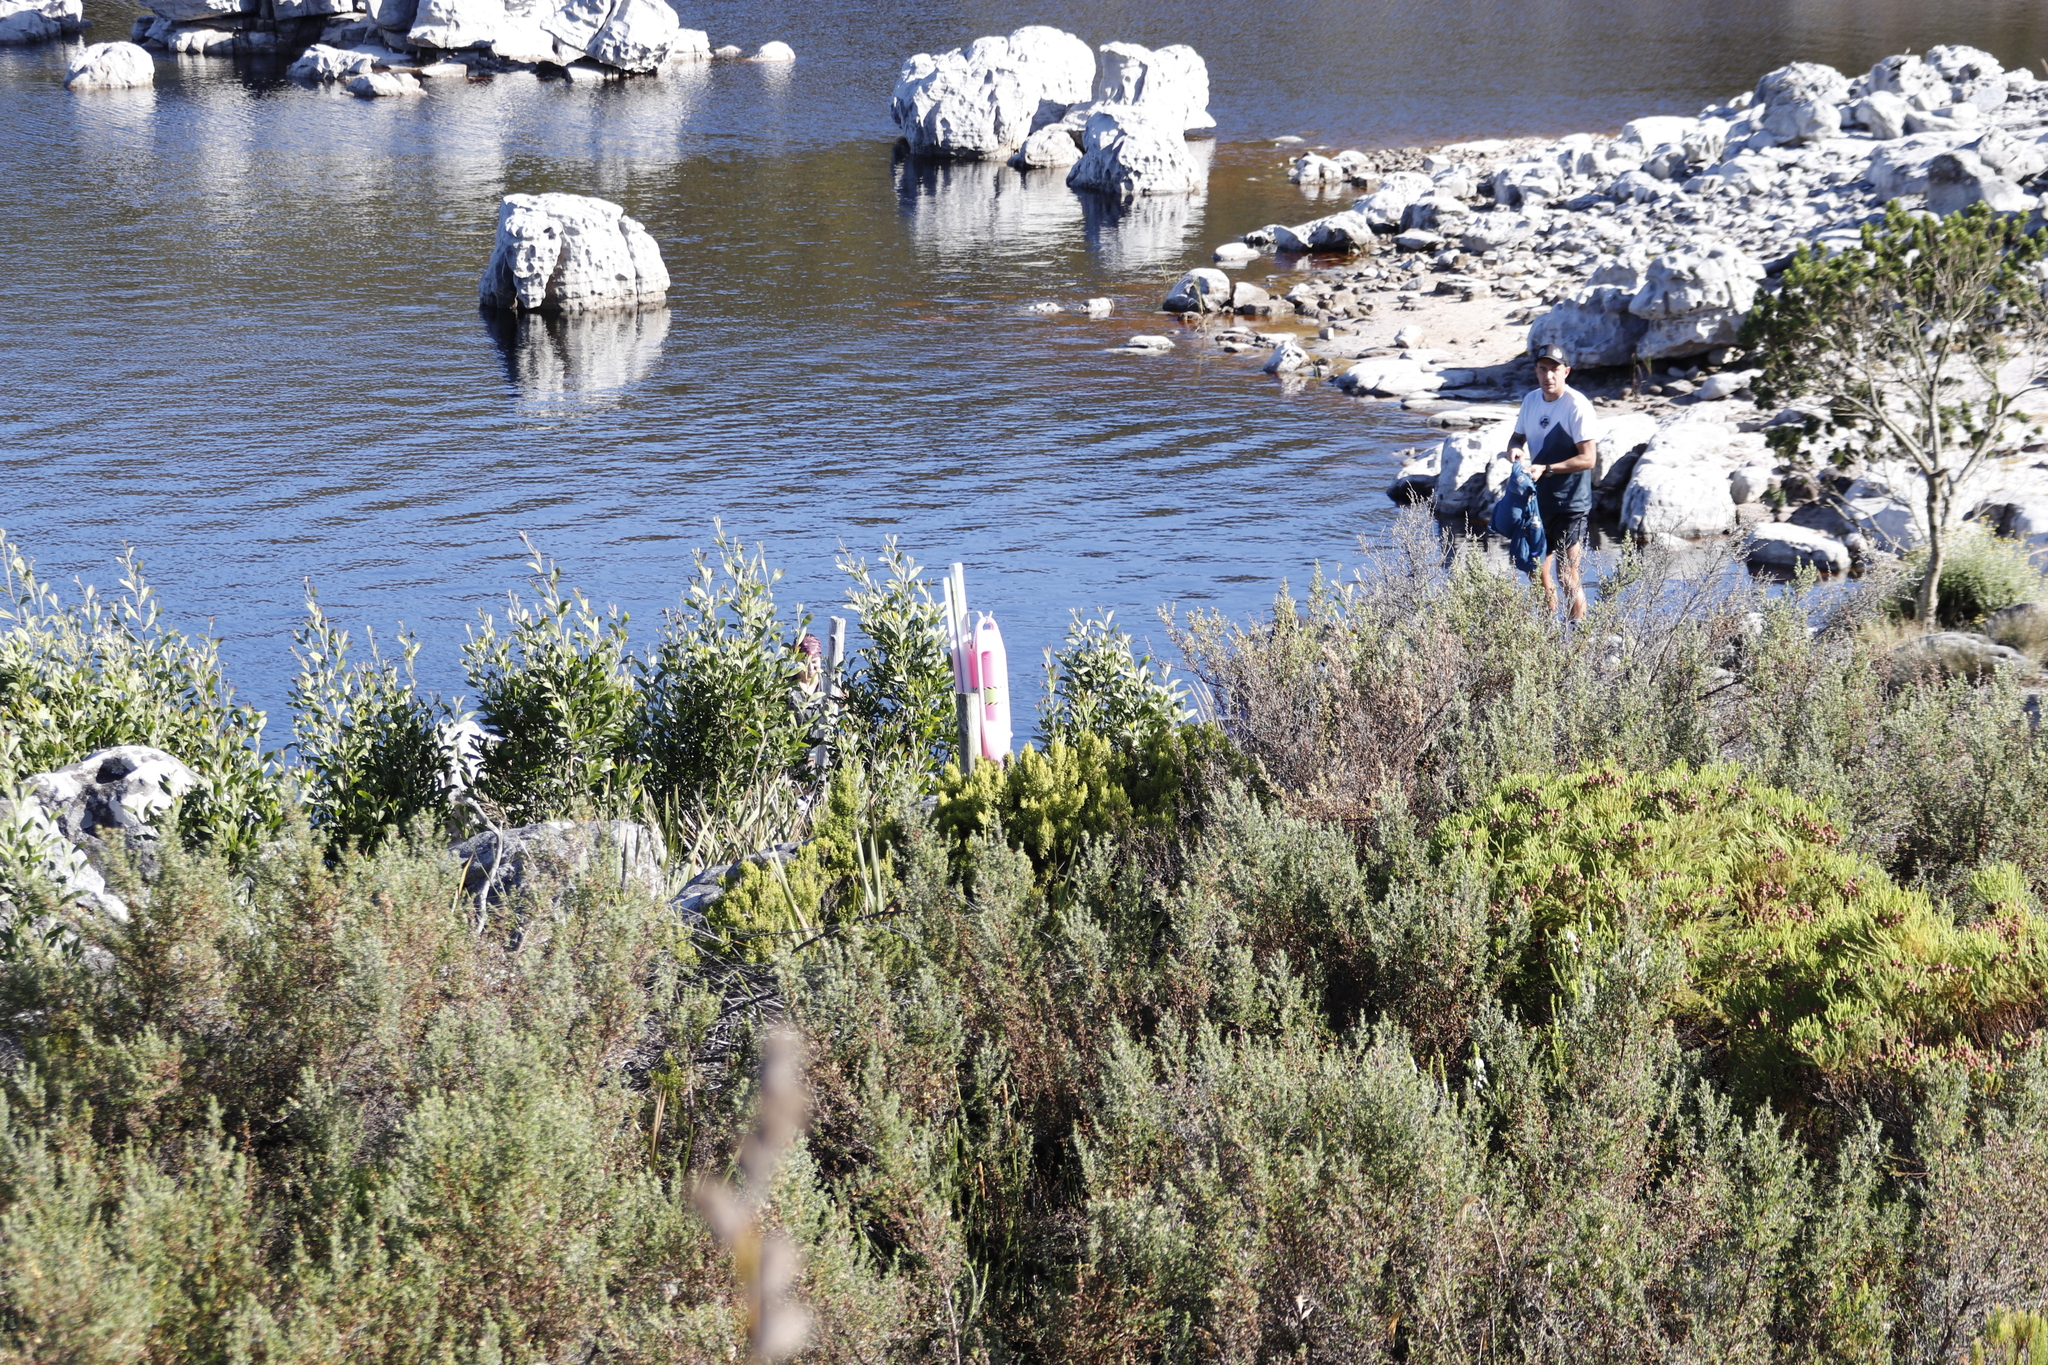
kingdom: Plantae
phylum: Tracheophyta
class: Magnoliopsida
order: Fabales
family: Fabaceae
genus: Acacia
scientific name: Acacia melanoxylon
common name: Blackwood
